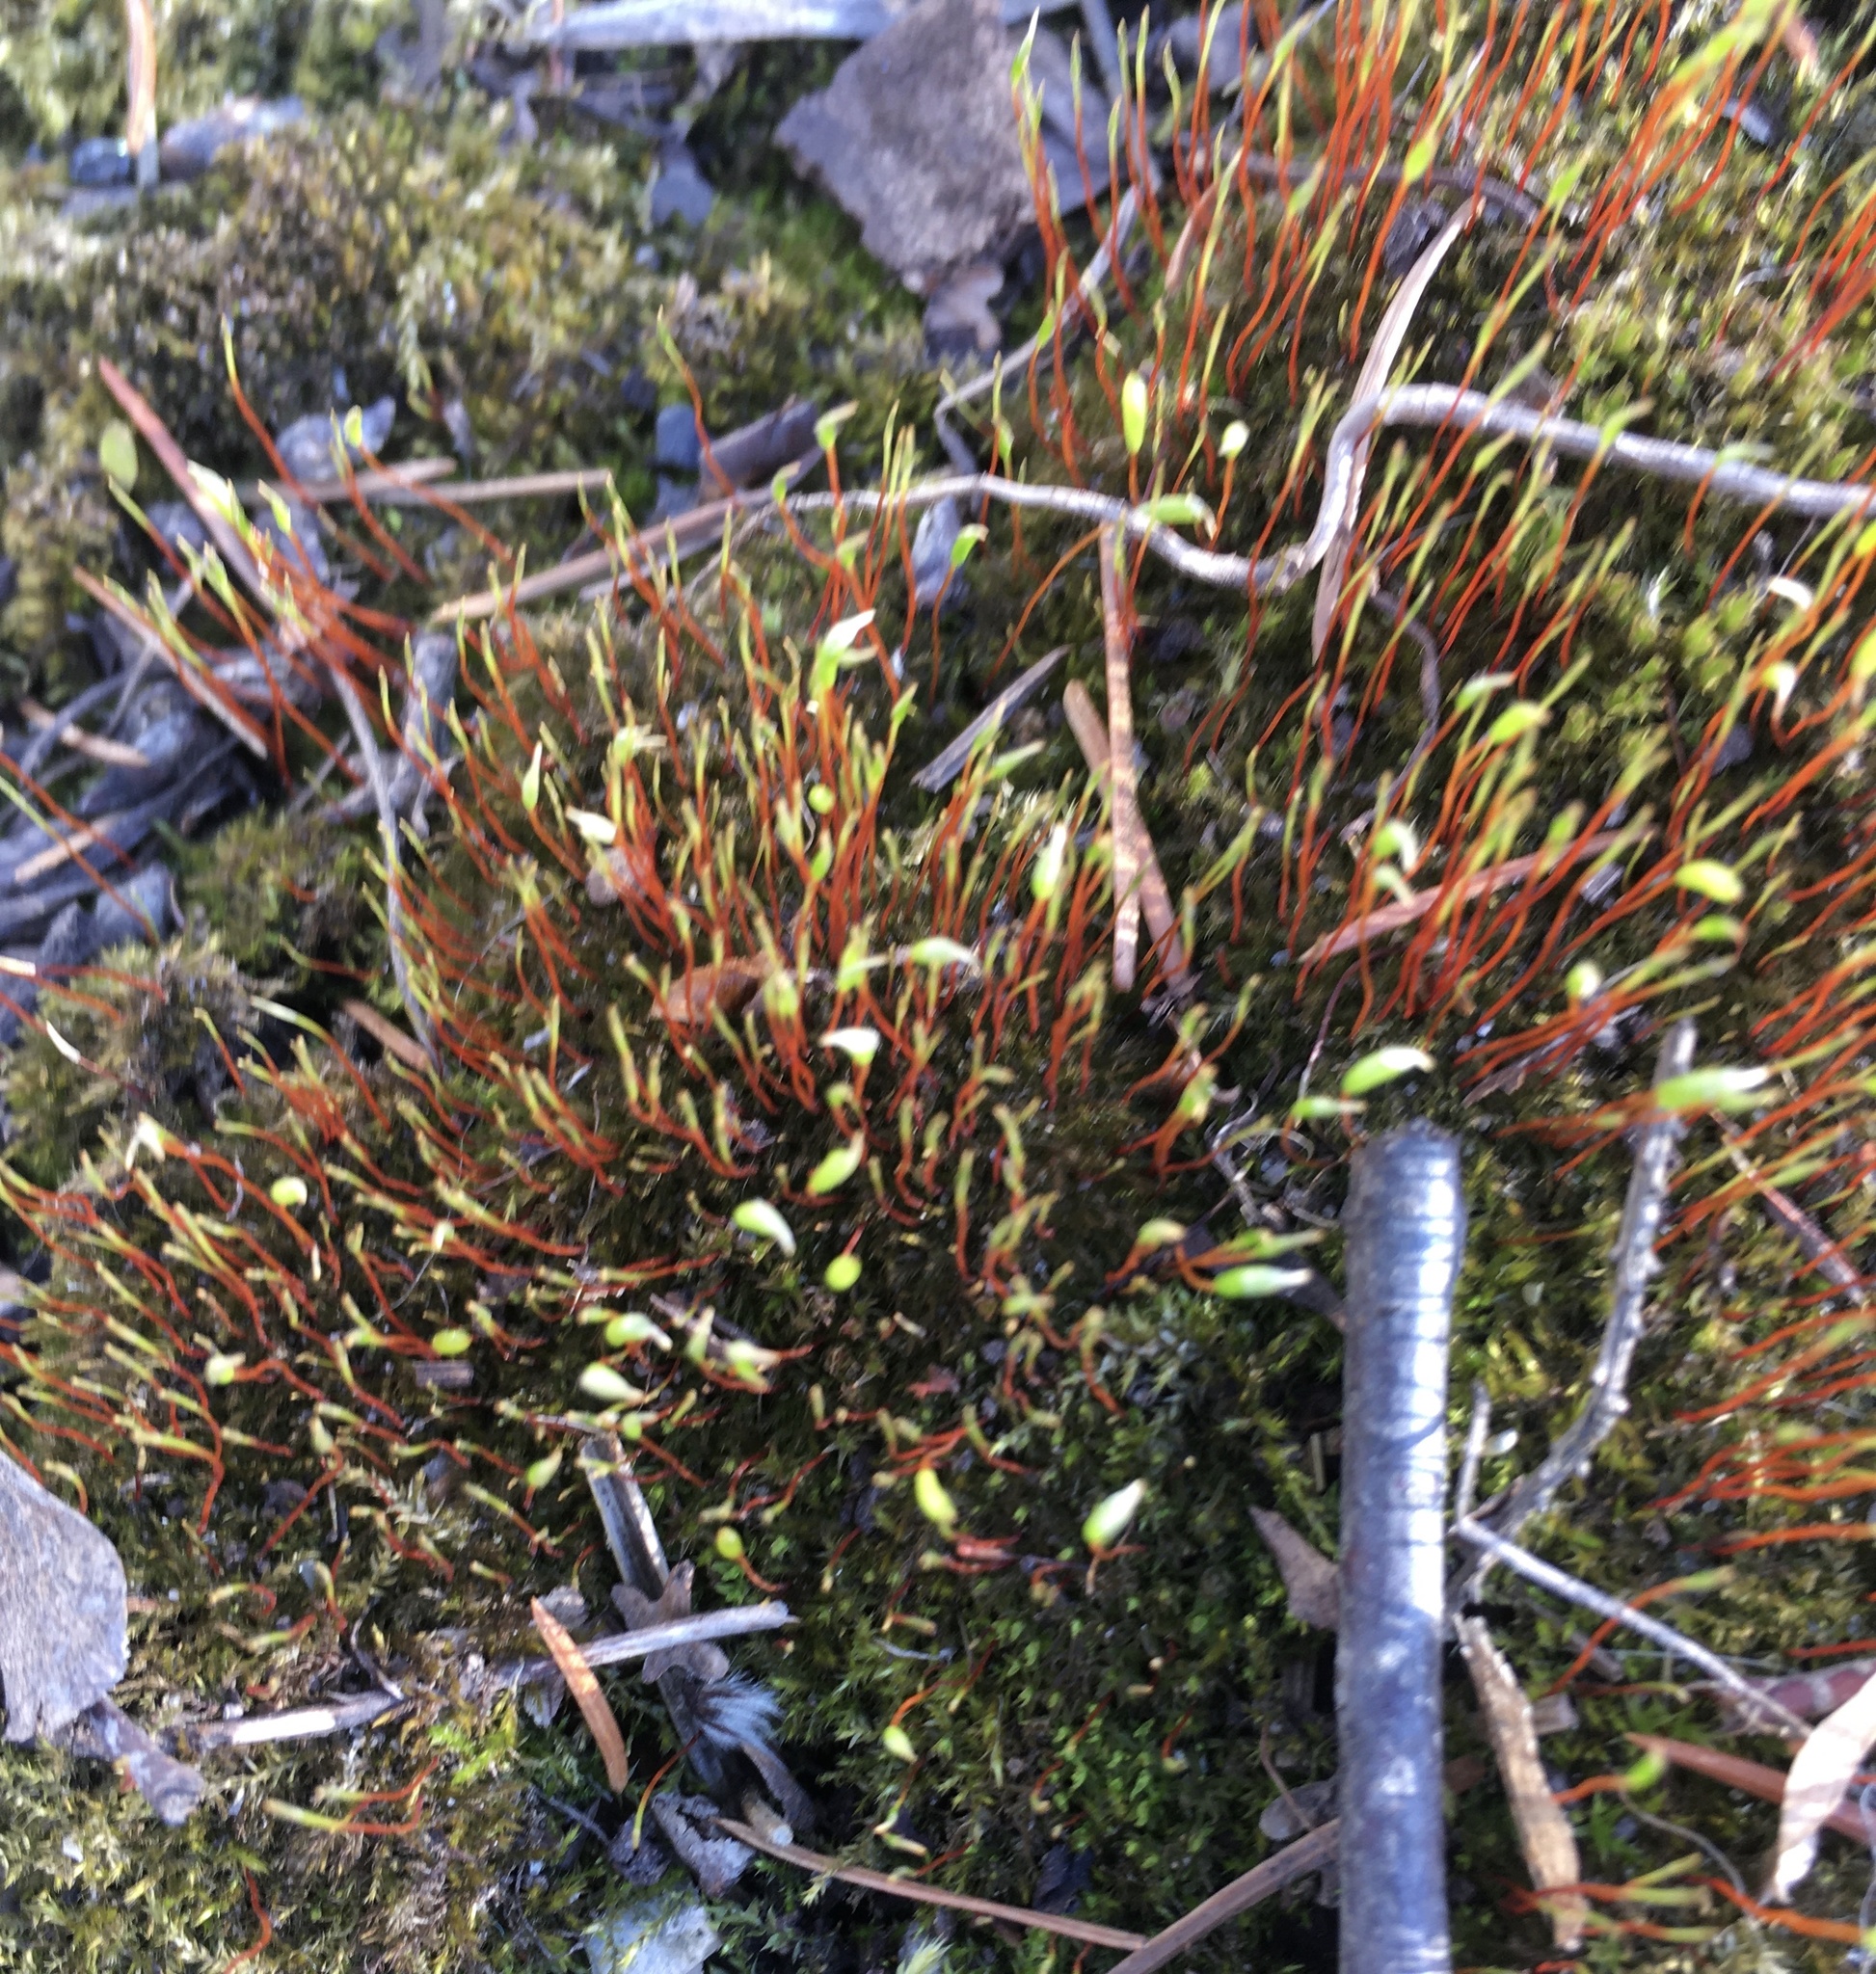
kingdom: Plantae
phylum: Bryophyta
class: Bryopsida
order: Dicranales
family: Ditrichaceae
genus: Ceratodon
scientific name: Ceratodon purpureus
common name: Redshank
